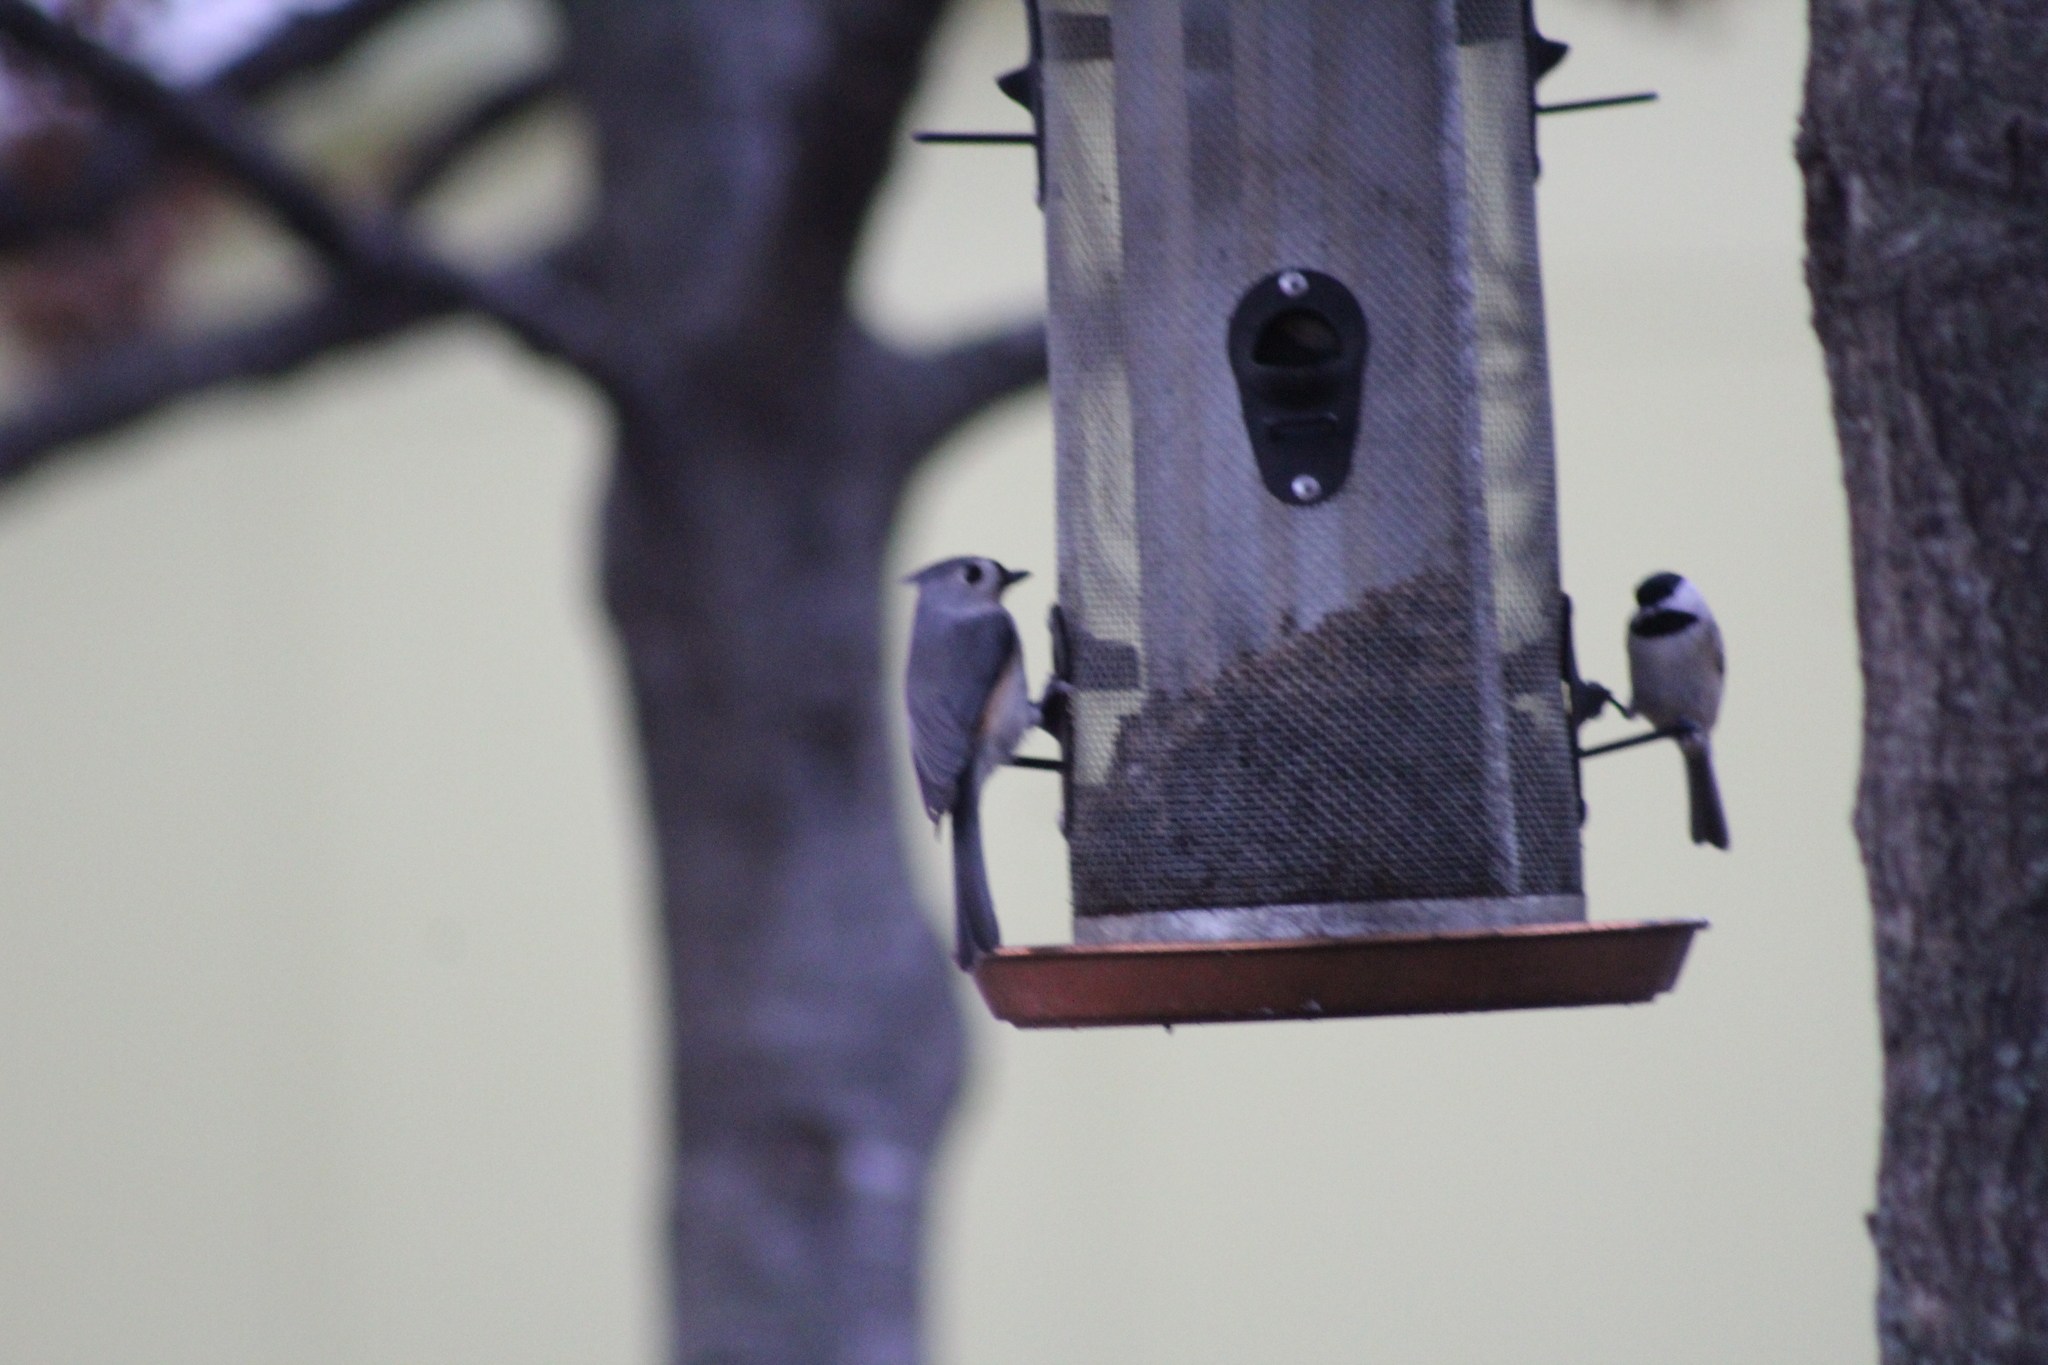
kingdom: Animalia
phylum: Chordata
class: Aves
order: Passeriformes
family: Paridae
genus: Baeolophus
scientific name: Baeolophus bicolor
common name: Tufted titmouse
